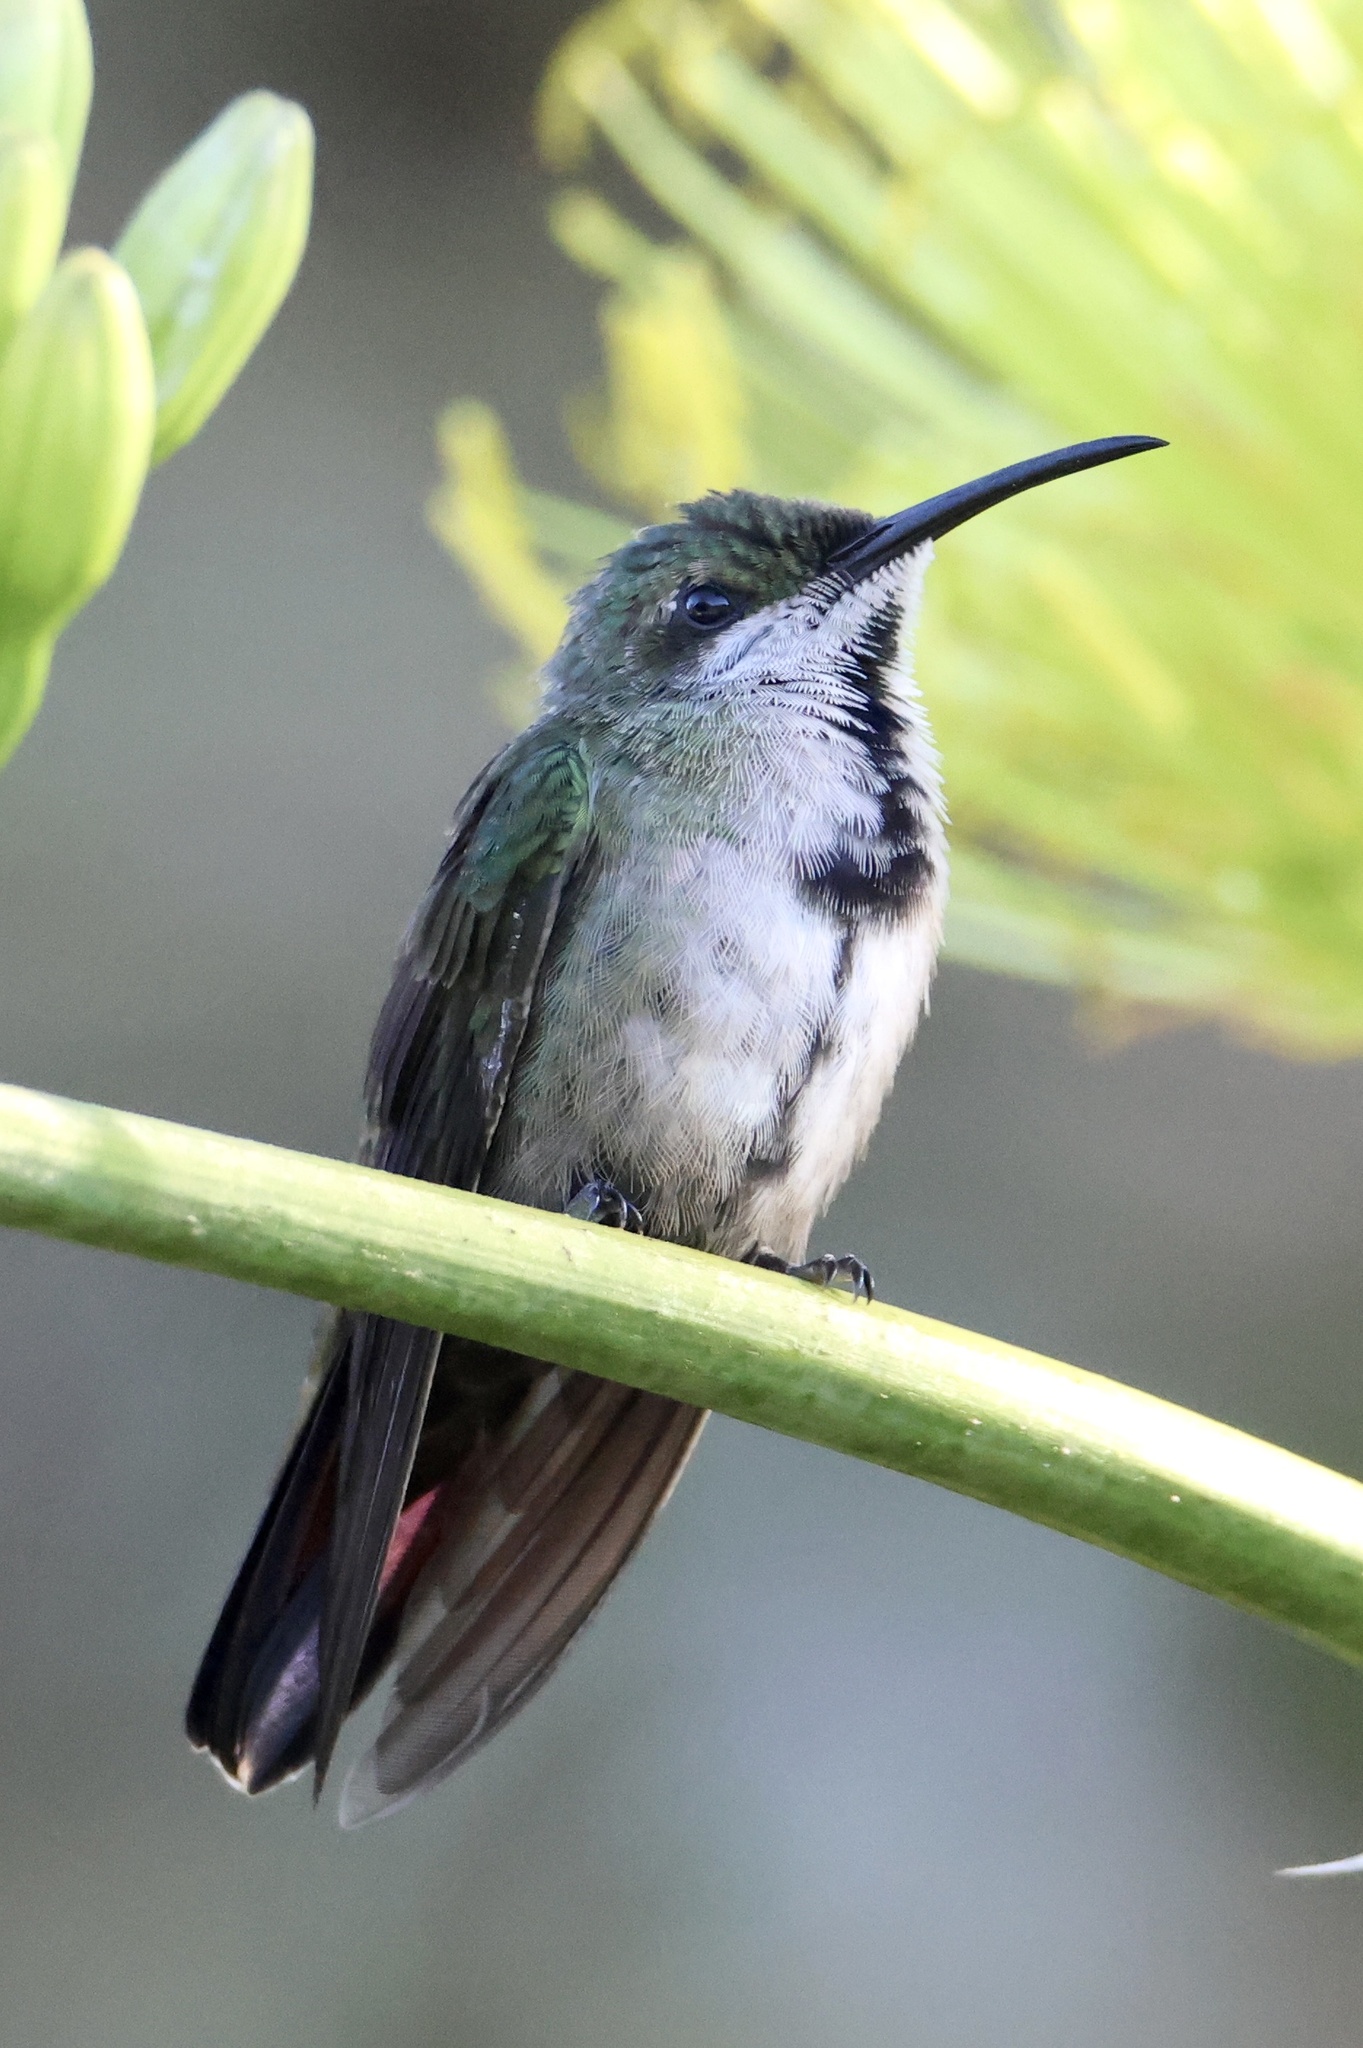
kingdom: Animalia
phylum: Chordata
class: Aves
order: Apodiformes
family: Trochilidae
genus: Anthracothorax
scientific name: Anthracothorax dominicus
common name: Antillean mango
